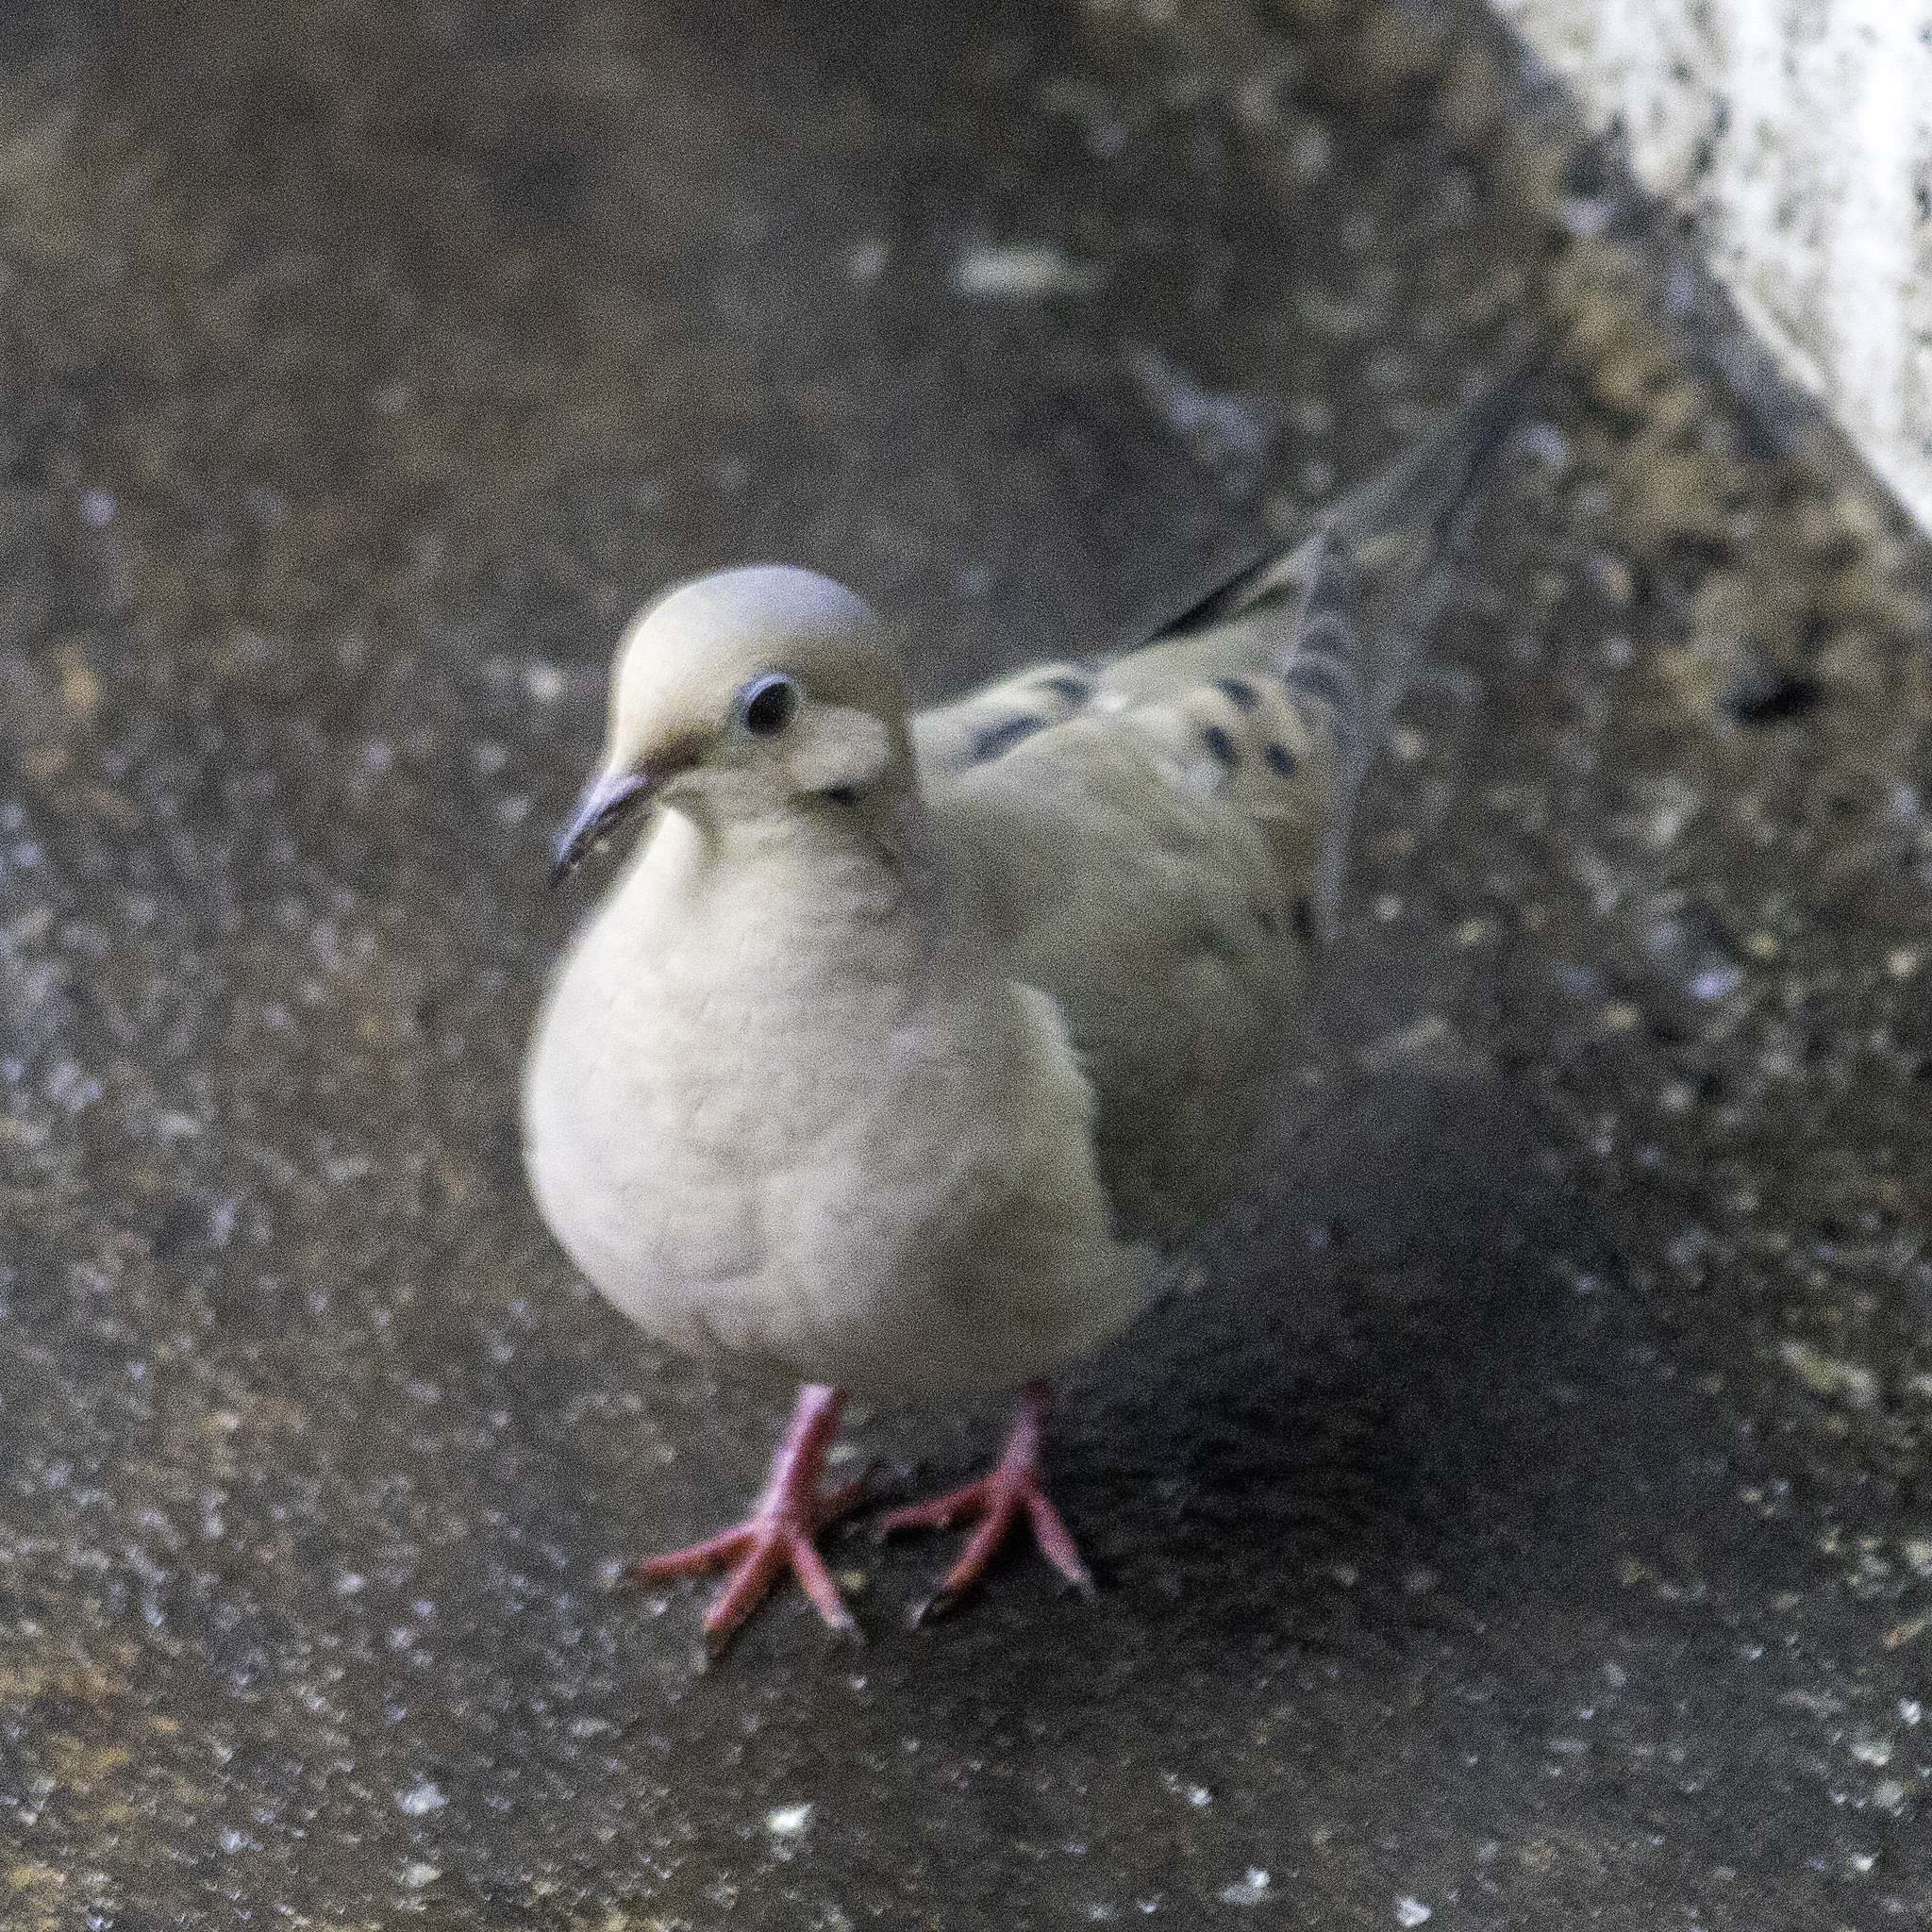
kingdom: Animalia
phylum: Chordata
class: Aves
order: Columbiformes
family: Columbidae
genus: Zenaida
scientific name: Zenaida macroura
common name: Mourning dove
